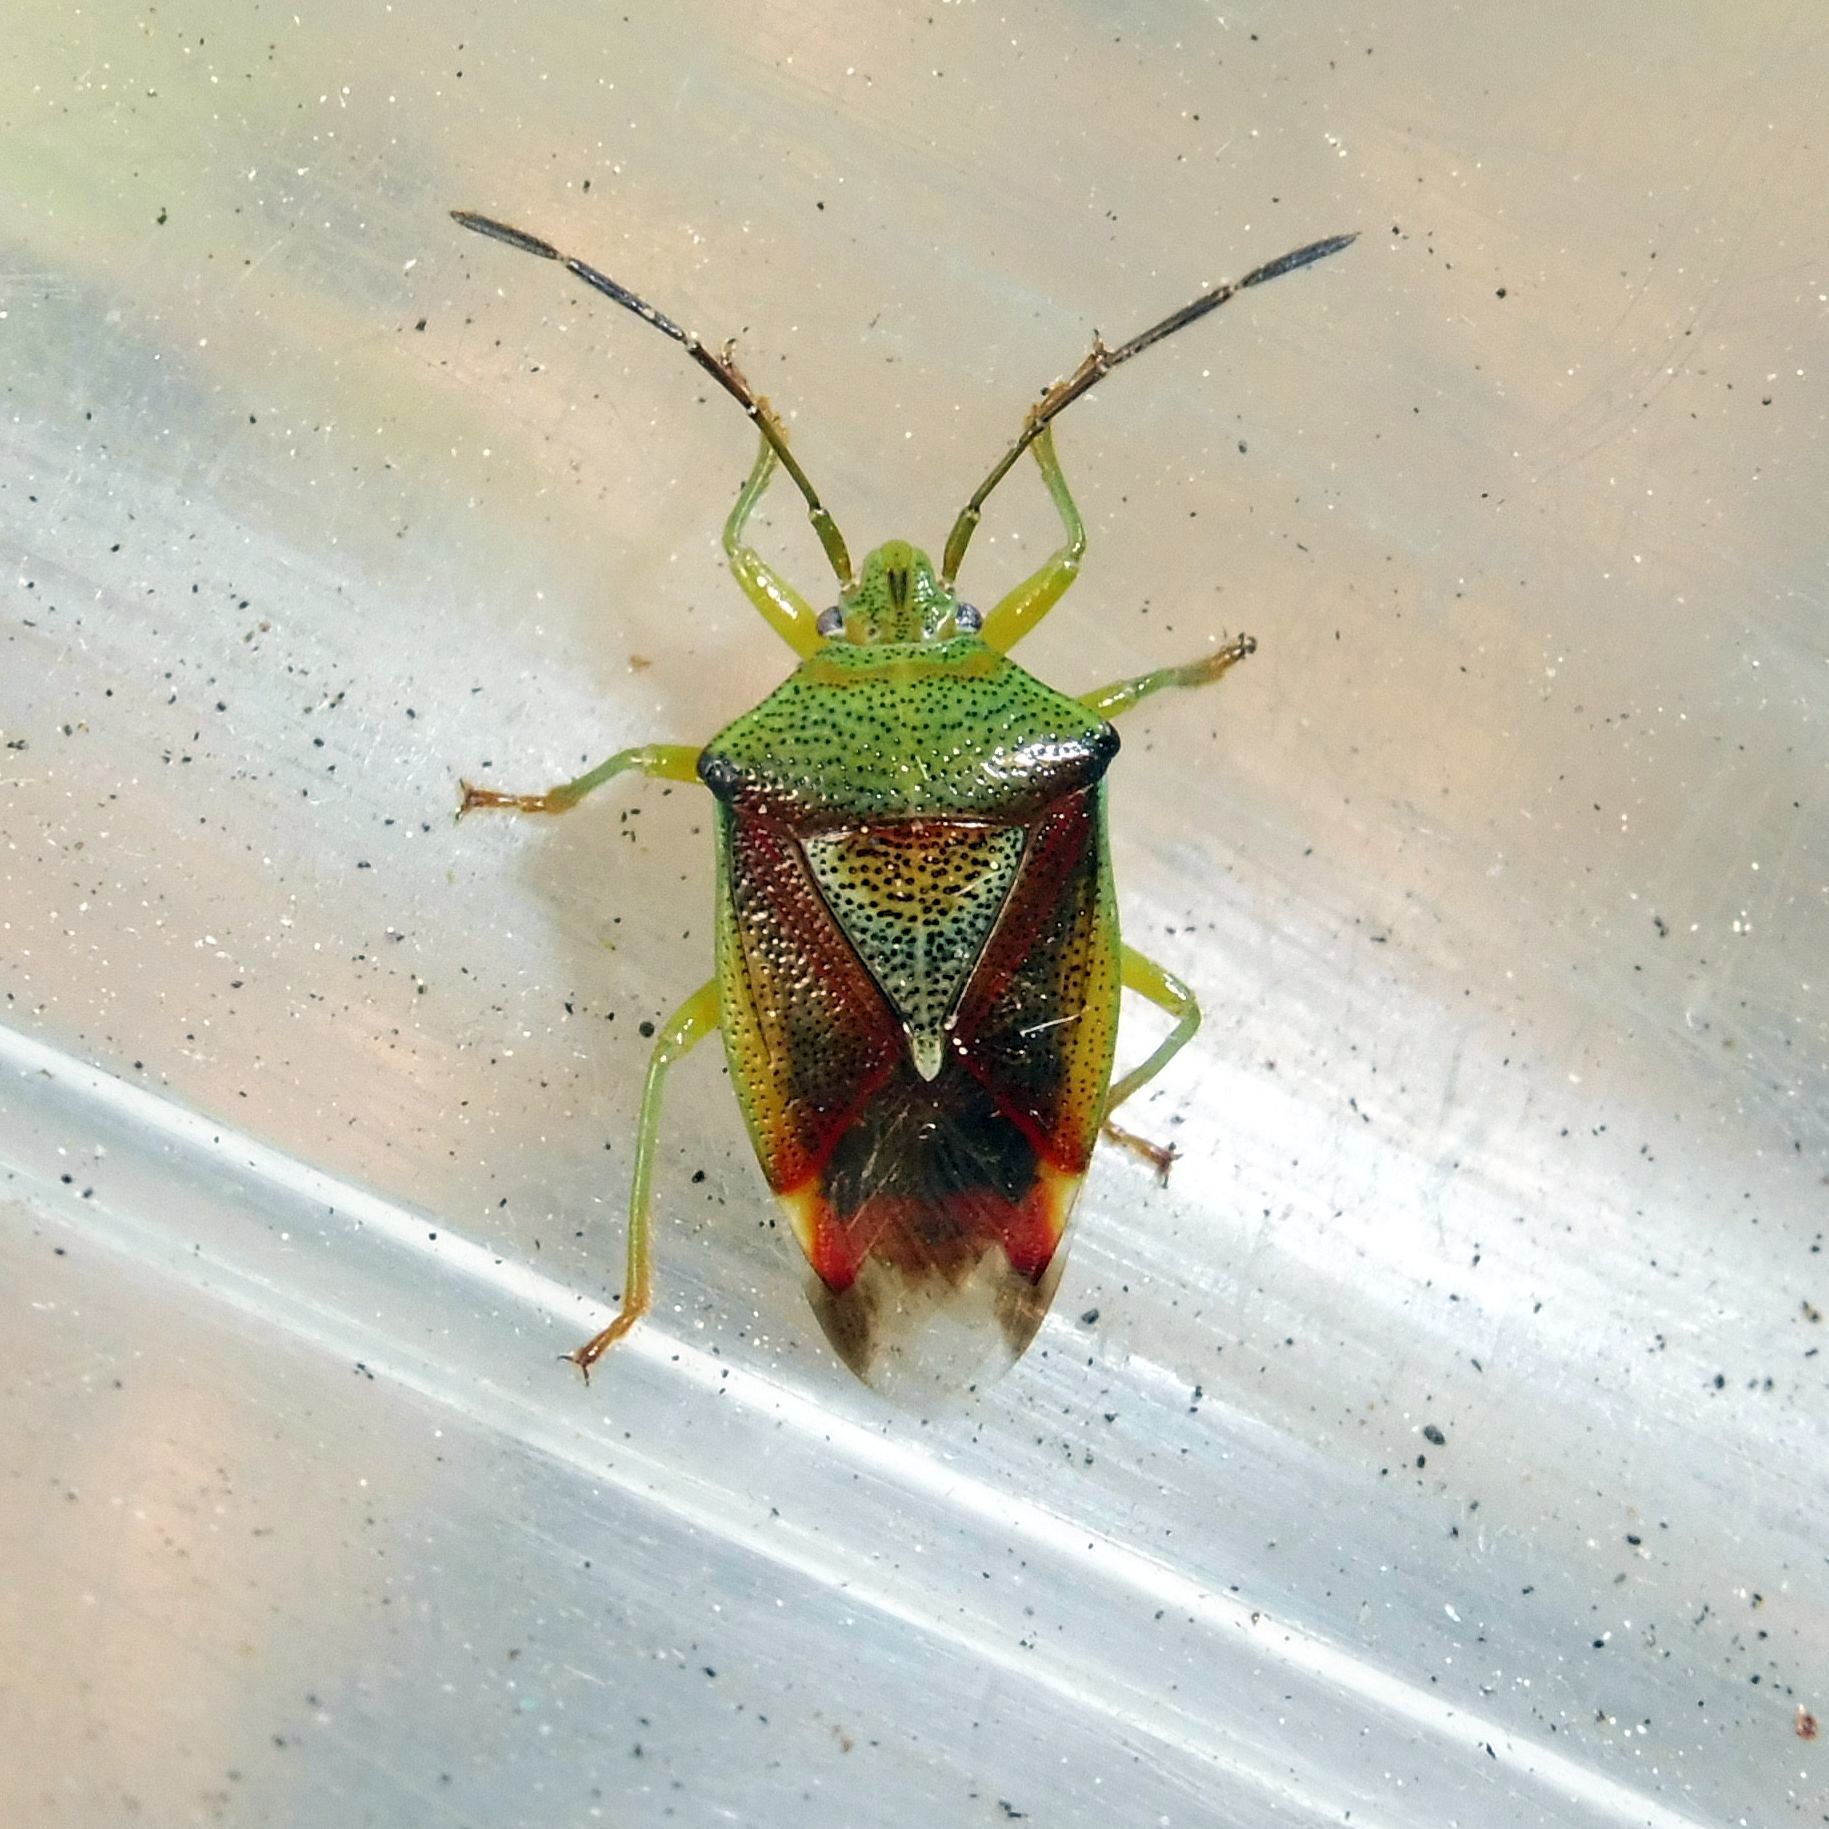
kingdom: Animalia
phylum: Arthropoda
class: Insecta
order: Hemiptera
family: Acanthosomatidae
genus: Elasmostethus
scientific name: Elasmostethus interstinctus
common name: Birch shieldbug
